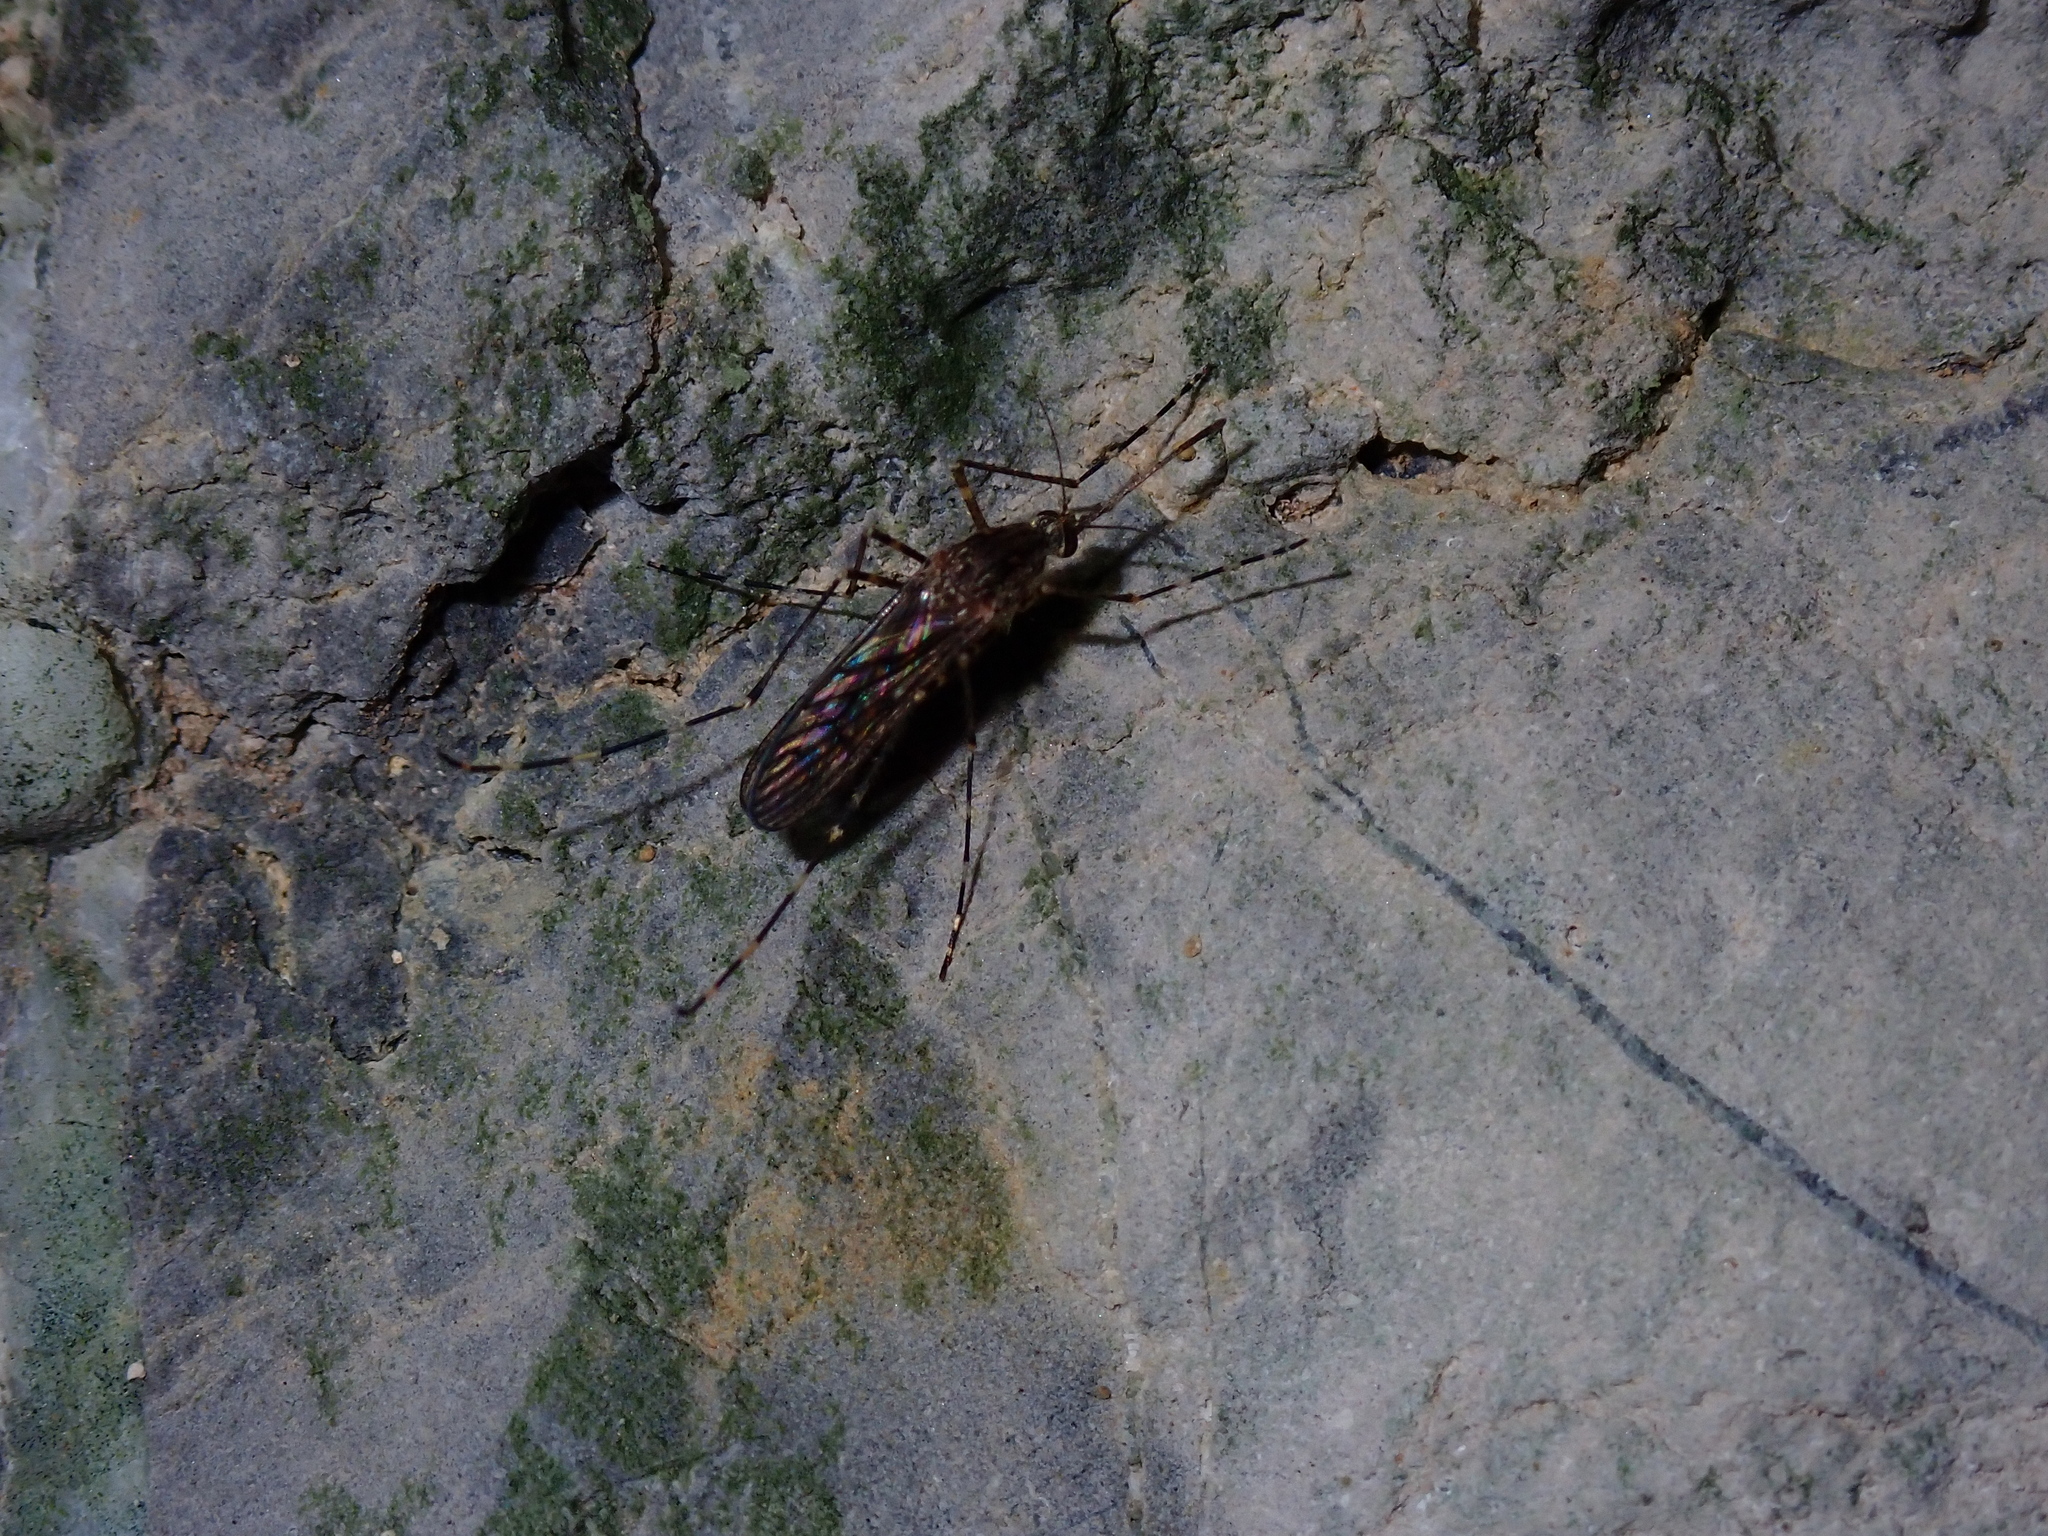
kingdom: Animalia
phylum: Arthropoda
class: Insecta
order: Diptera
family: Culicidae
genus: Culiseta
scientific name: Culiseta annulata
